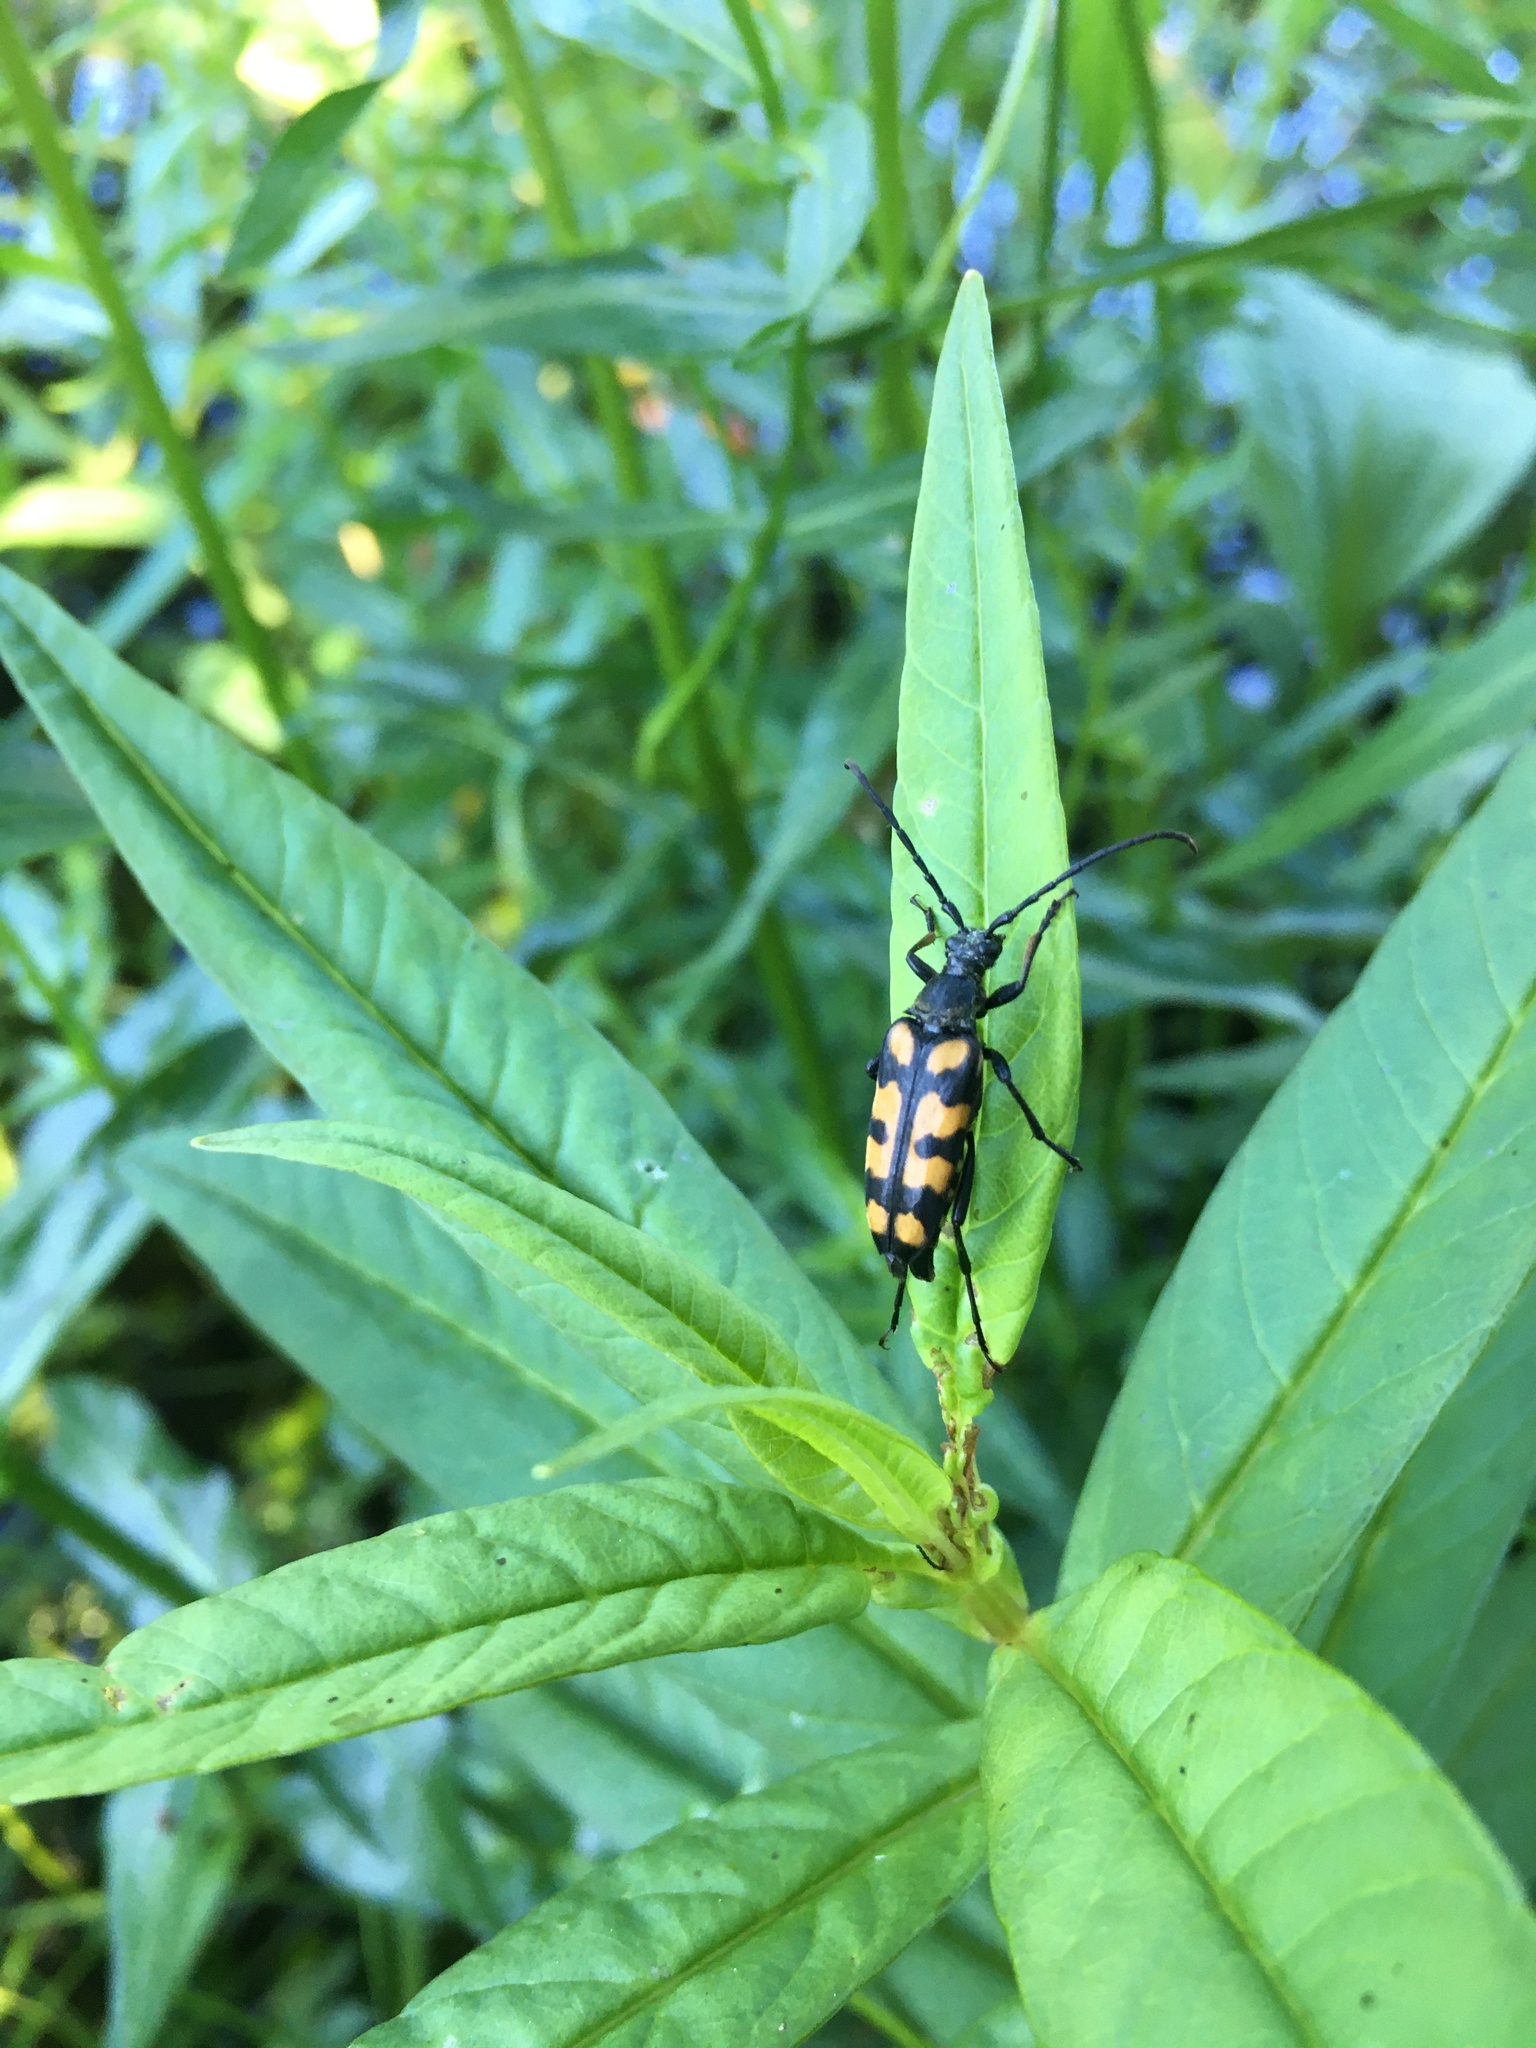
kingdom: Animalia
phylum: Arthropoda
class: Insecta
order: Coleoptera
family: Cerambycidae
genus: Leptura
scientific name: Leptura quadrifasciata
